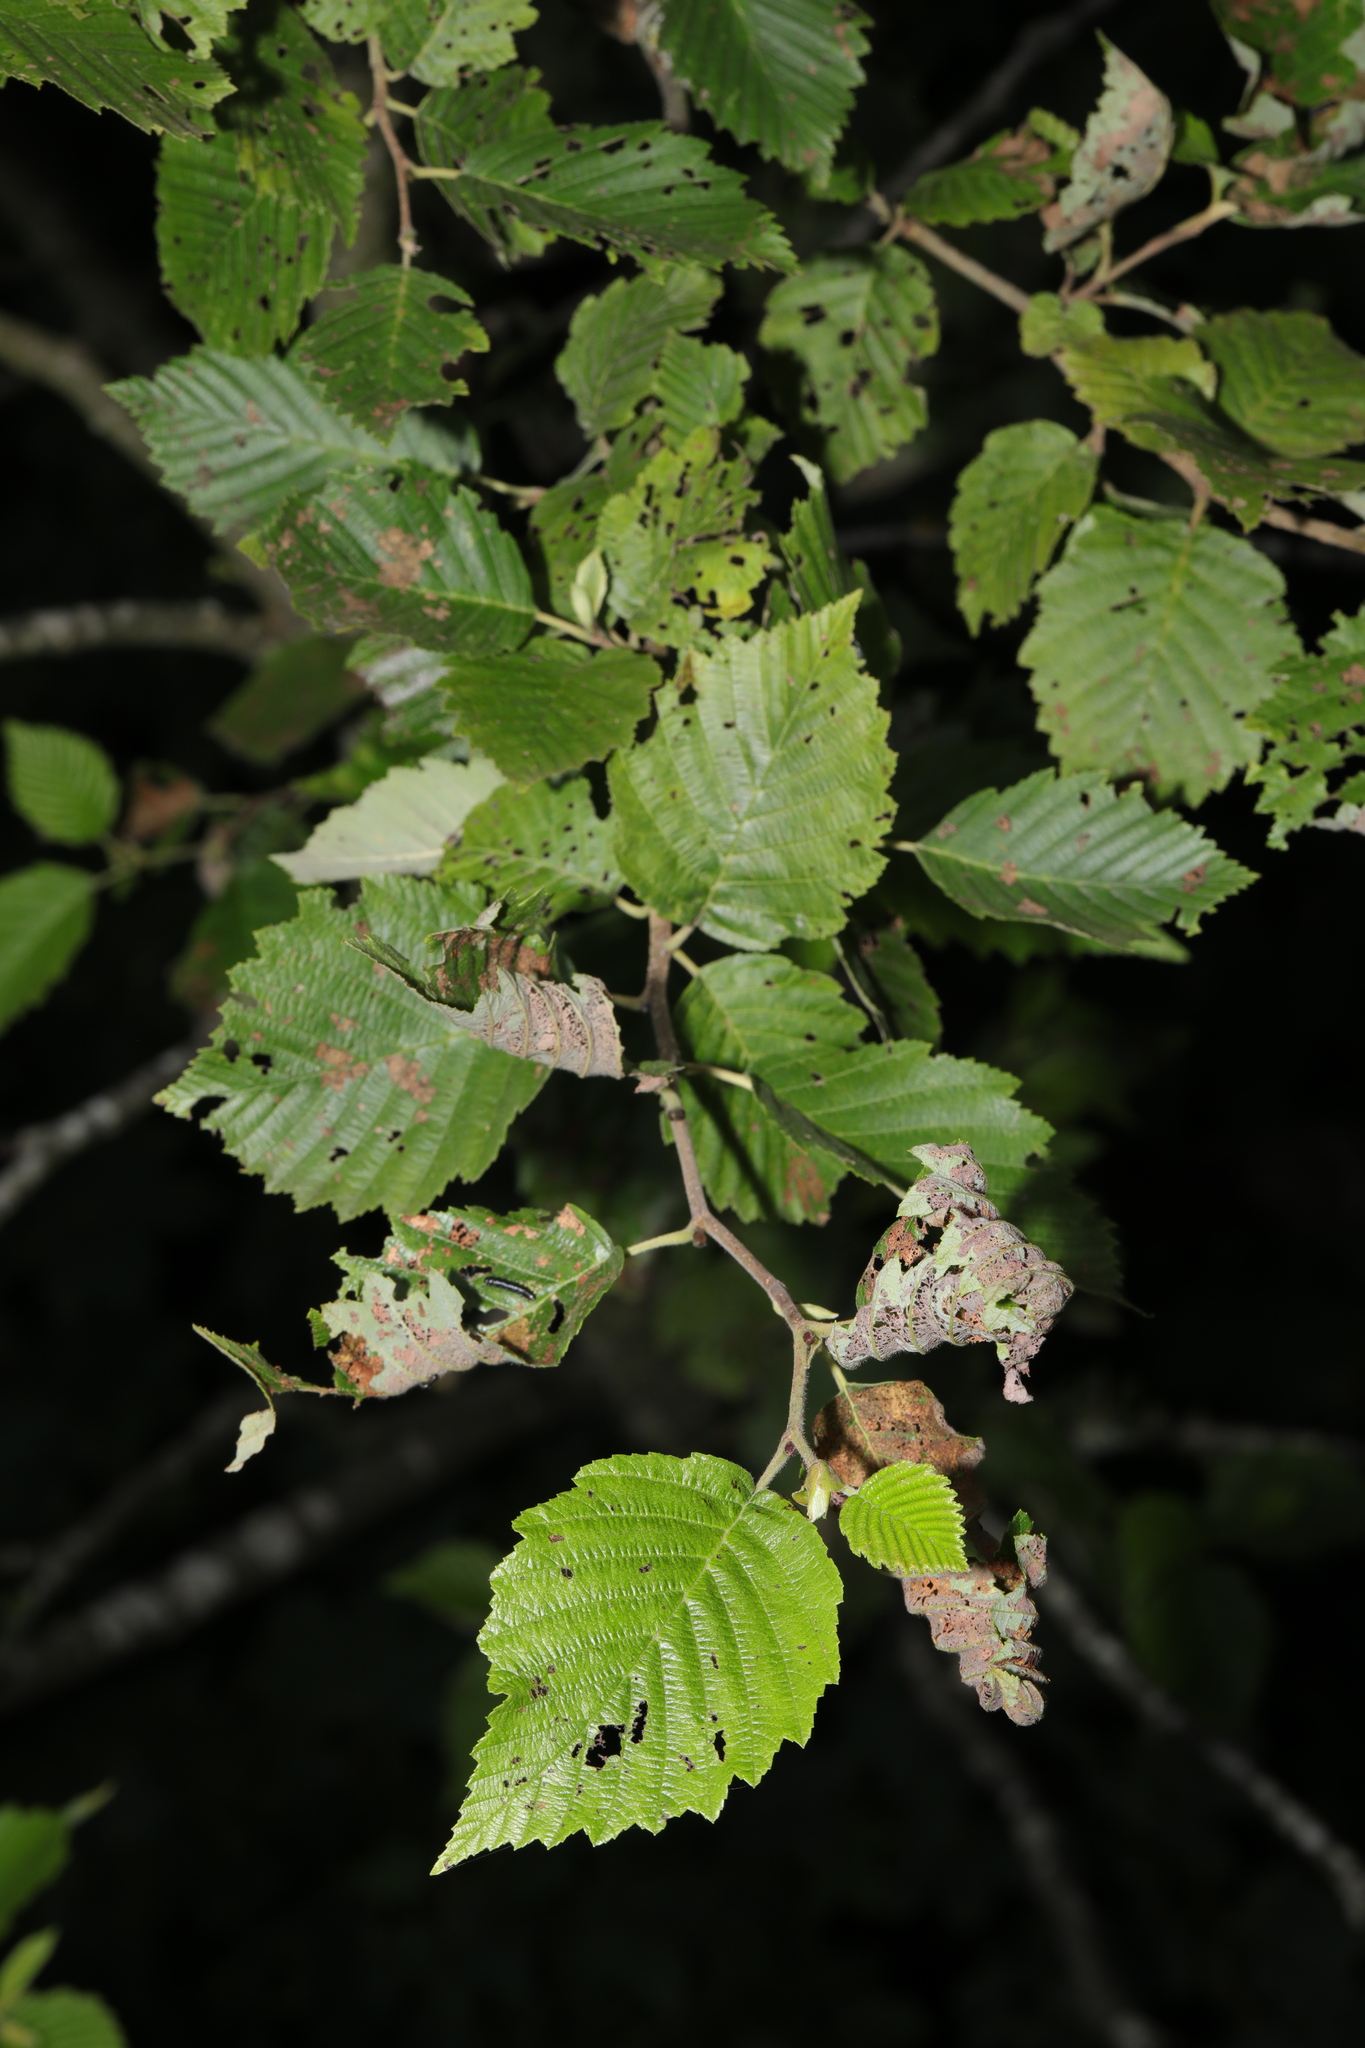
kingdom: Plantae
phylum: Tracheophyta
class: Magnoliopsida
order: Fagales
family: Betulaceae
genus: Alnus
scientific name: Alnus incana
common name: Grey alder
